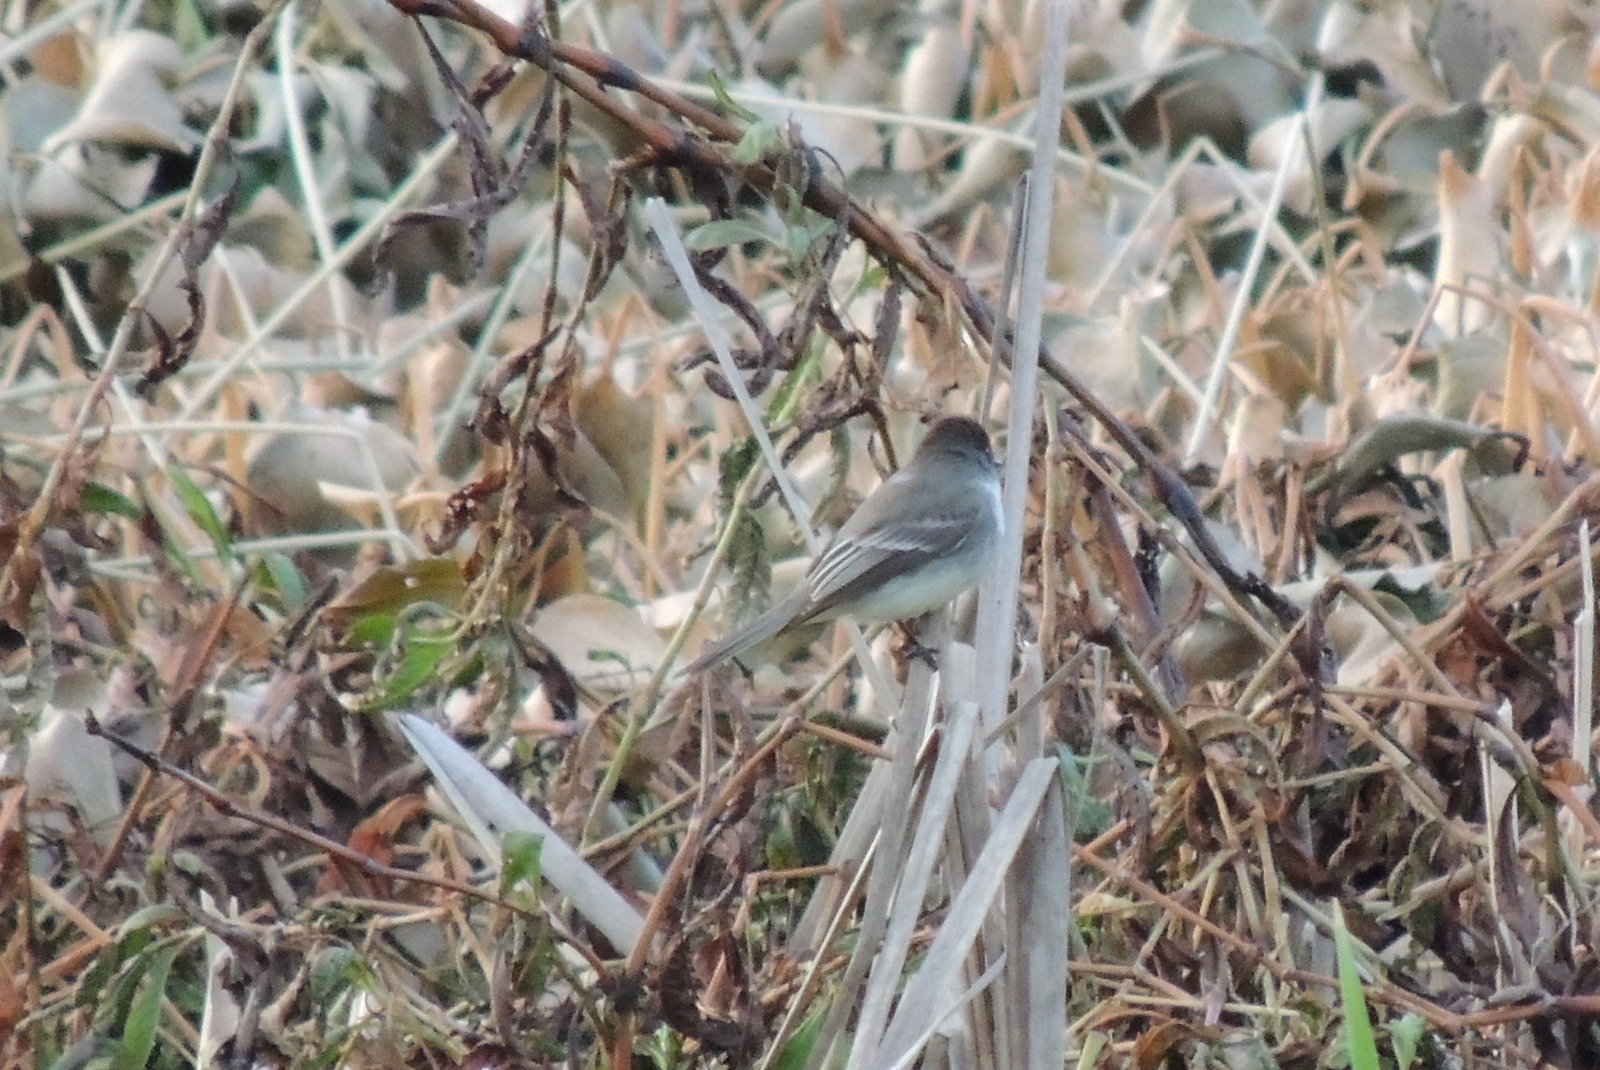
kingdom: Animalia
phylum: Chordata
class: Aves
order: Passeriformes
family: Tyrannidae
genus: Sayornis
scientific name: Sayornis phoebe
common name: Eastern phoebe
